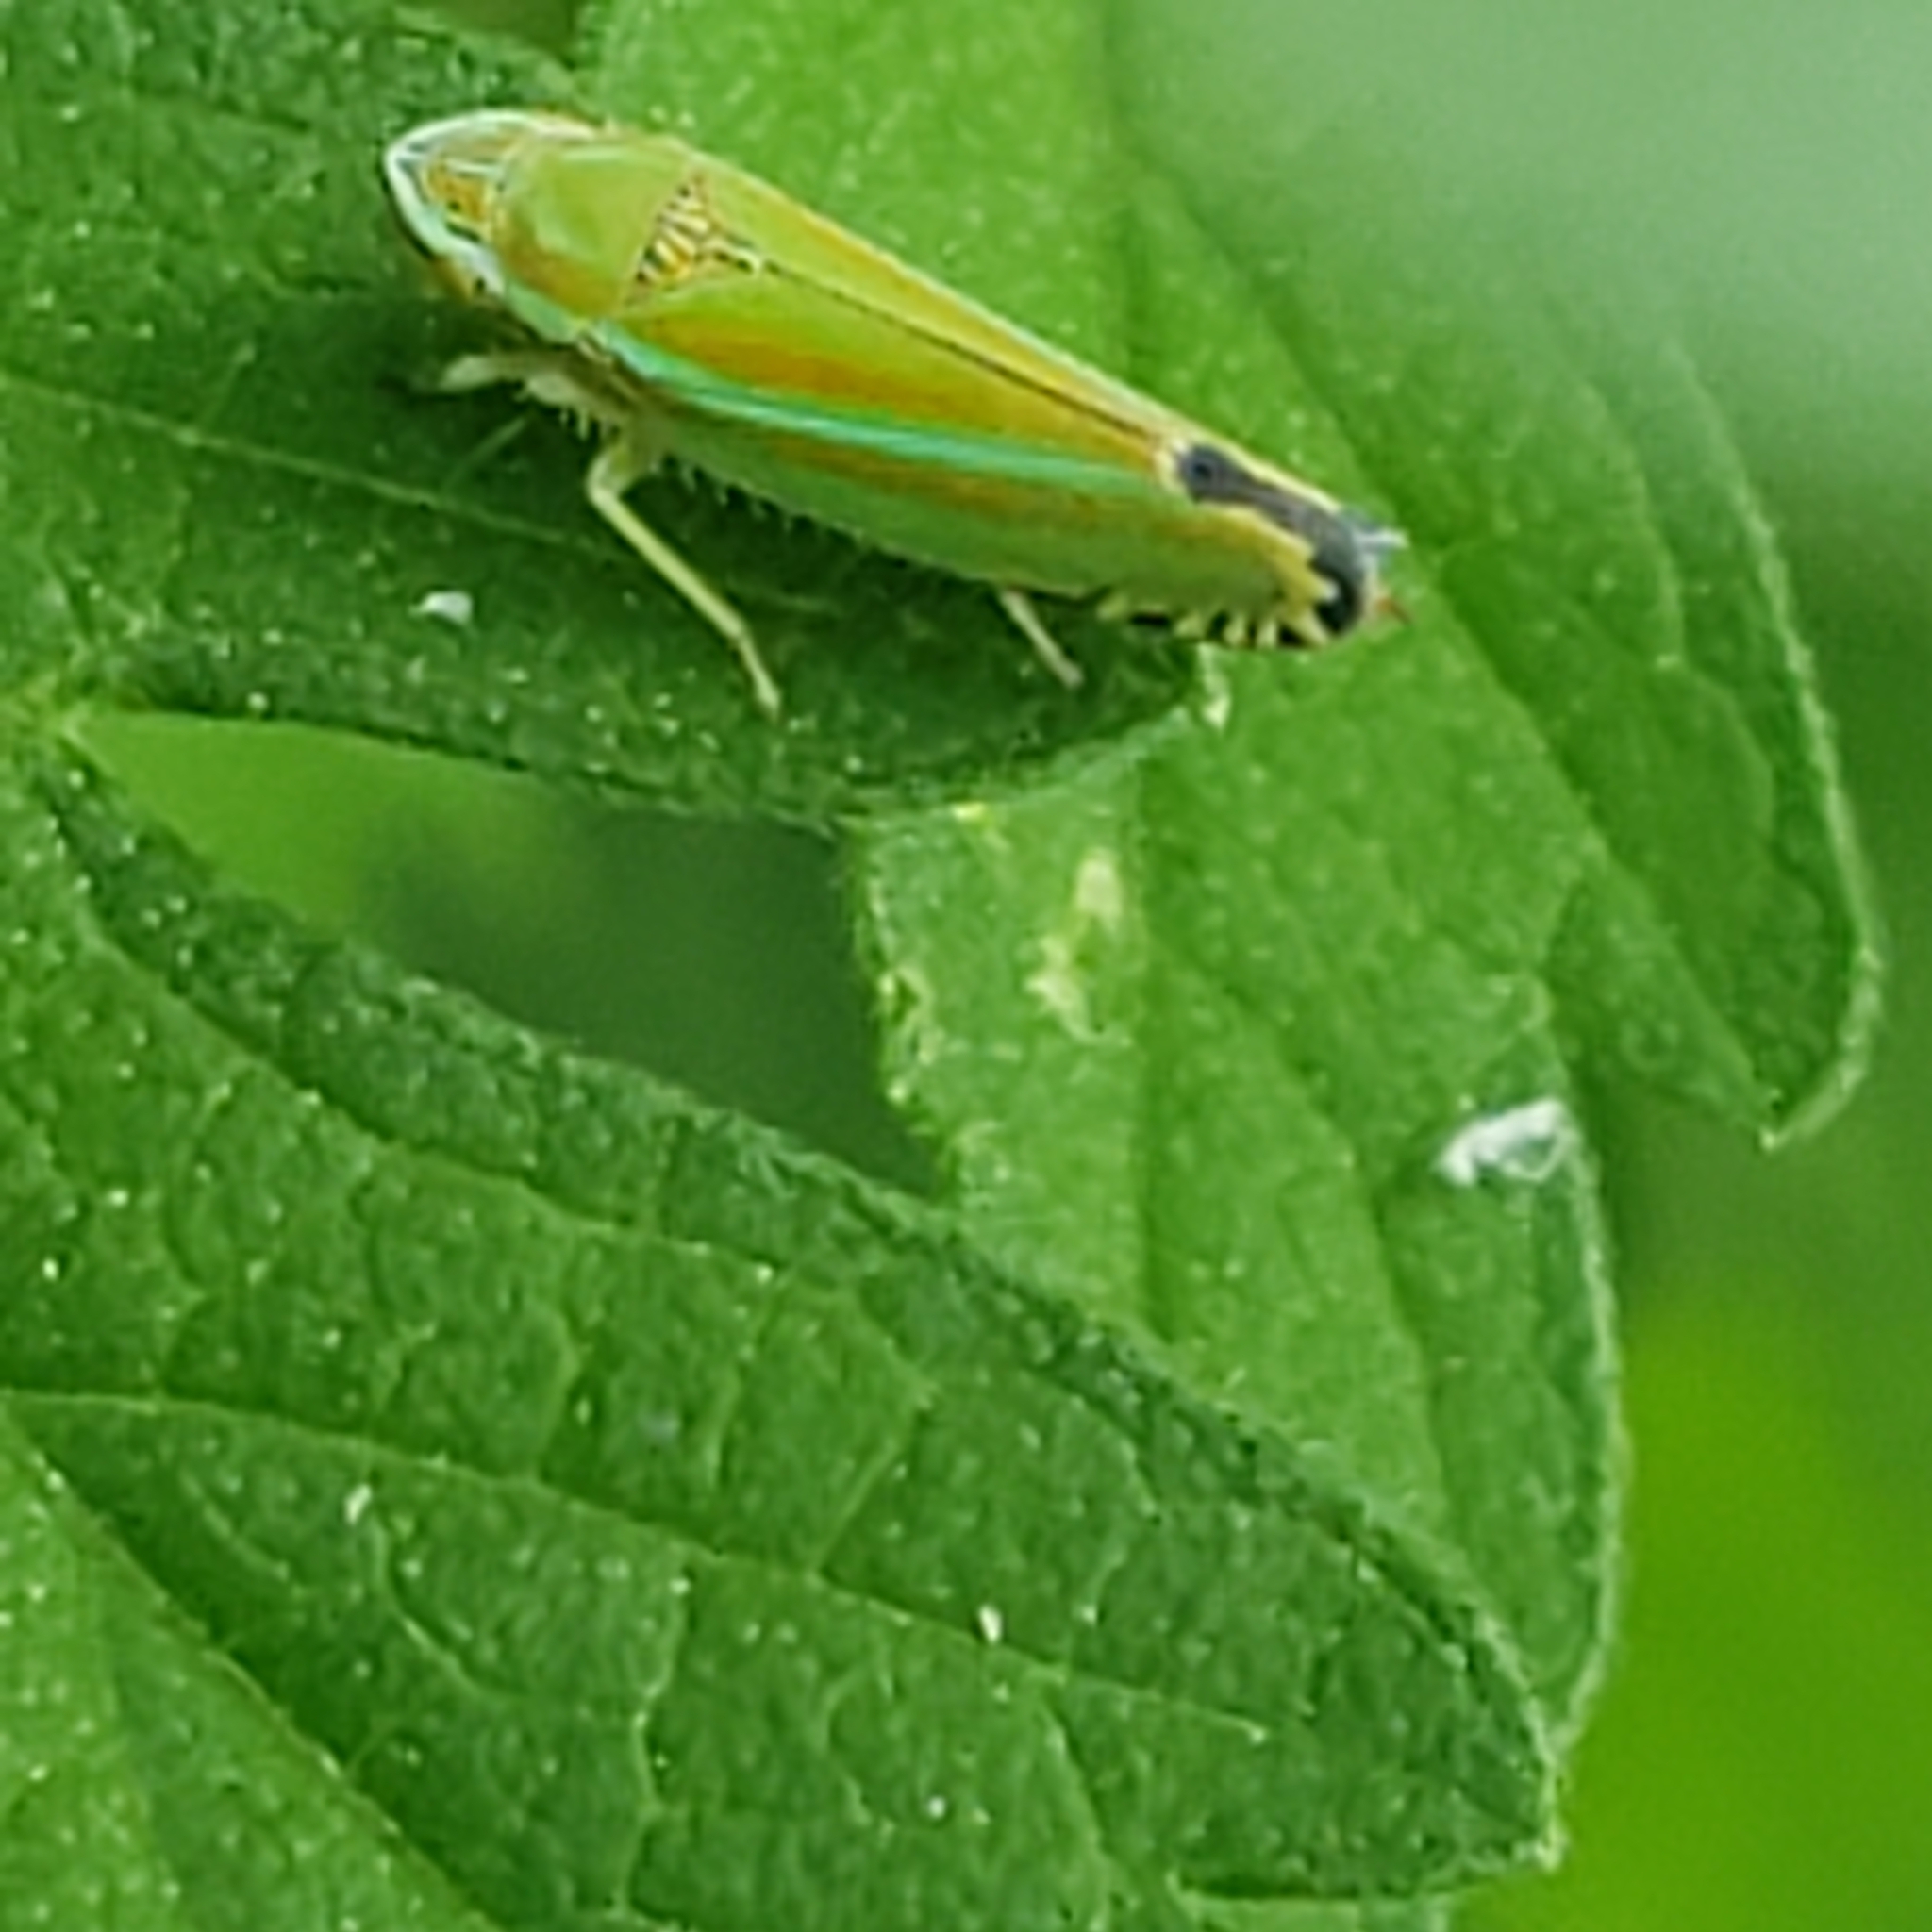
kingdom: Animalia
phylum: Arthropoda
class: Insecta
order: Hemiptera
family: Cicadellidae
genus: Graphocephala
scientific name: Graphocephala versuta
